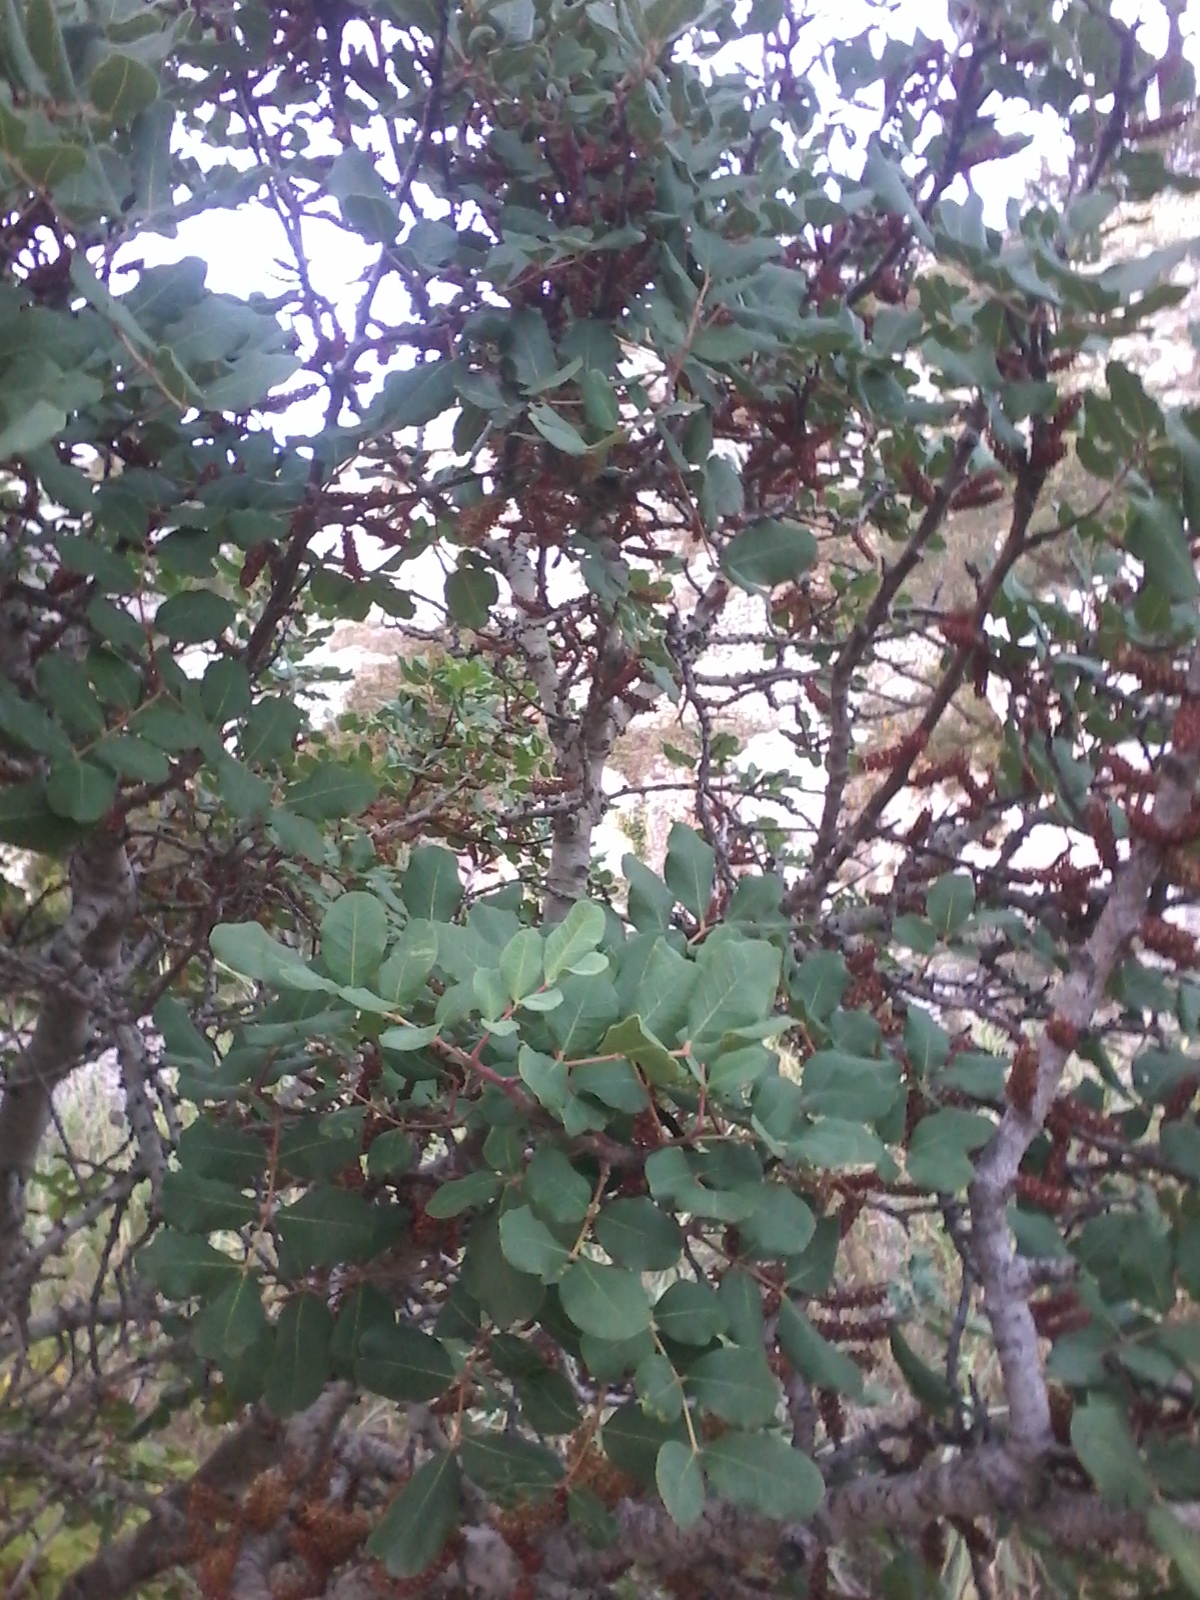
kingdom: Plantae
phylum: Tracheophyta
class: Magnoliopsida
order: Fabales
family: Fabaceae
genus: Ceratonia
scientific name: Ceratonia siliqua
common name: Carob
